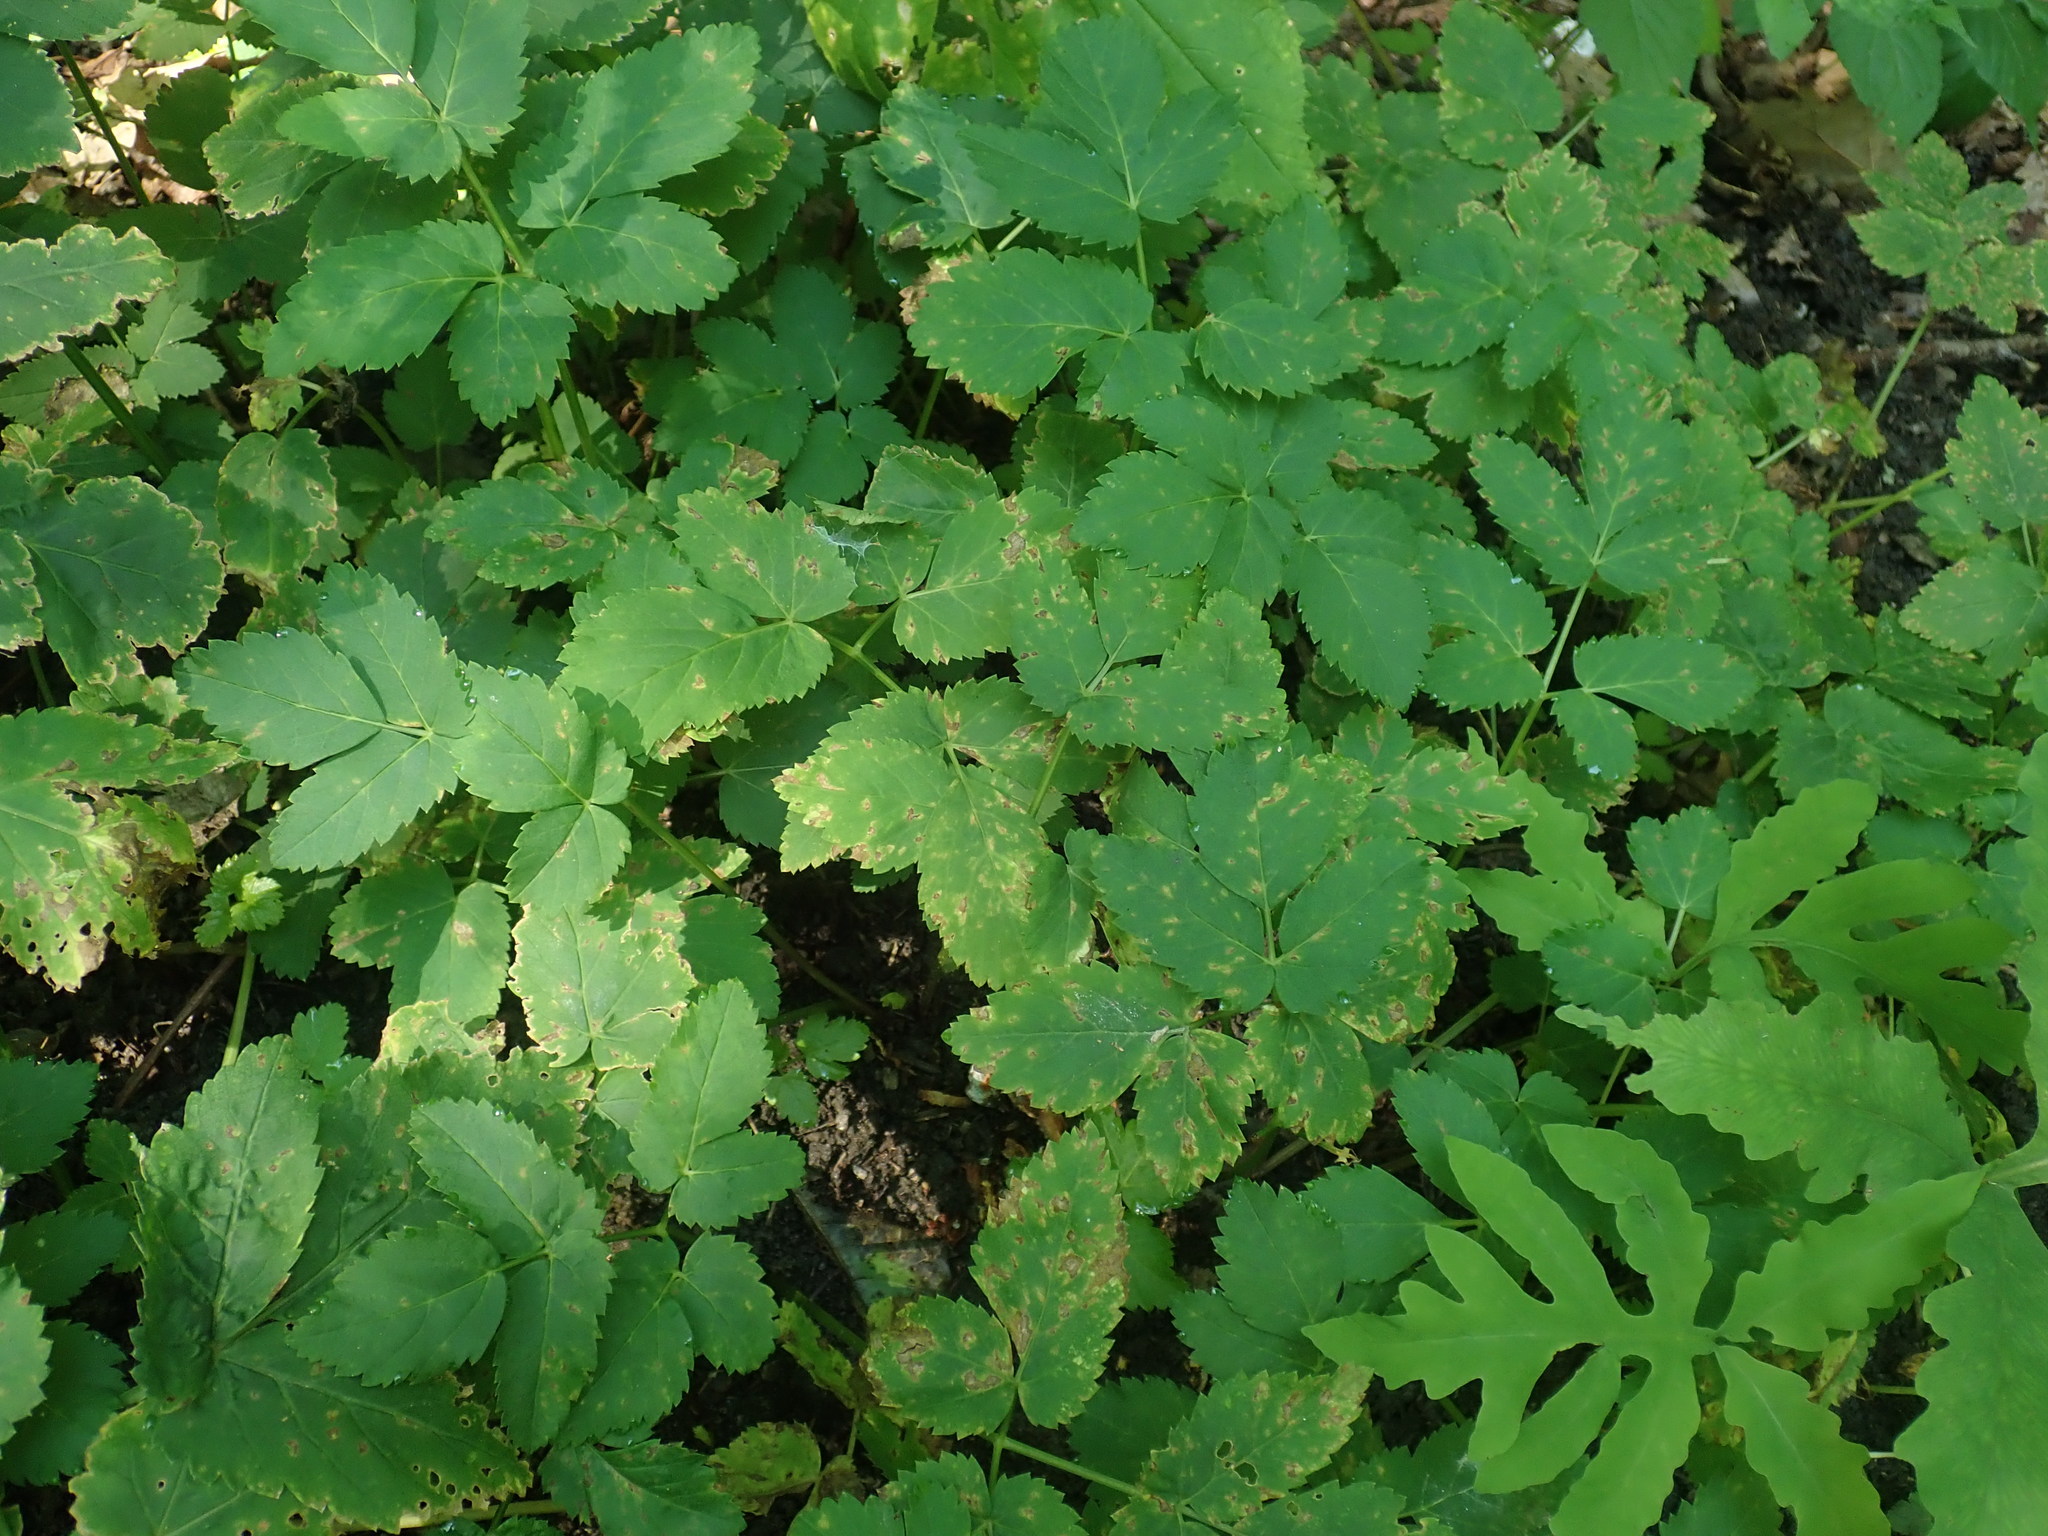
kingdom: Plantae
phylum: Tracheophyta
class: Magnoliopsida
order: Apiales
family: Apiaceae
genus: Aegopodium
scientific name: Aegopodium podagraria
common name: Ground-elder
